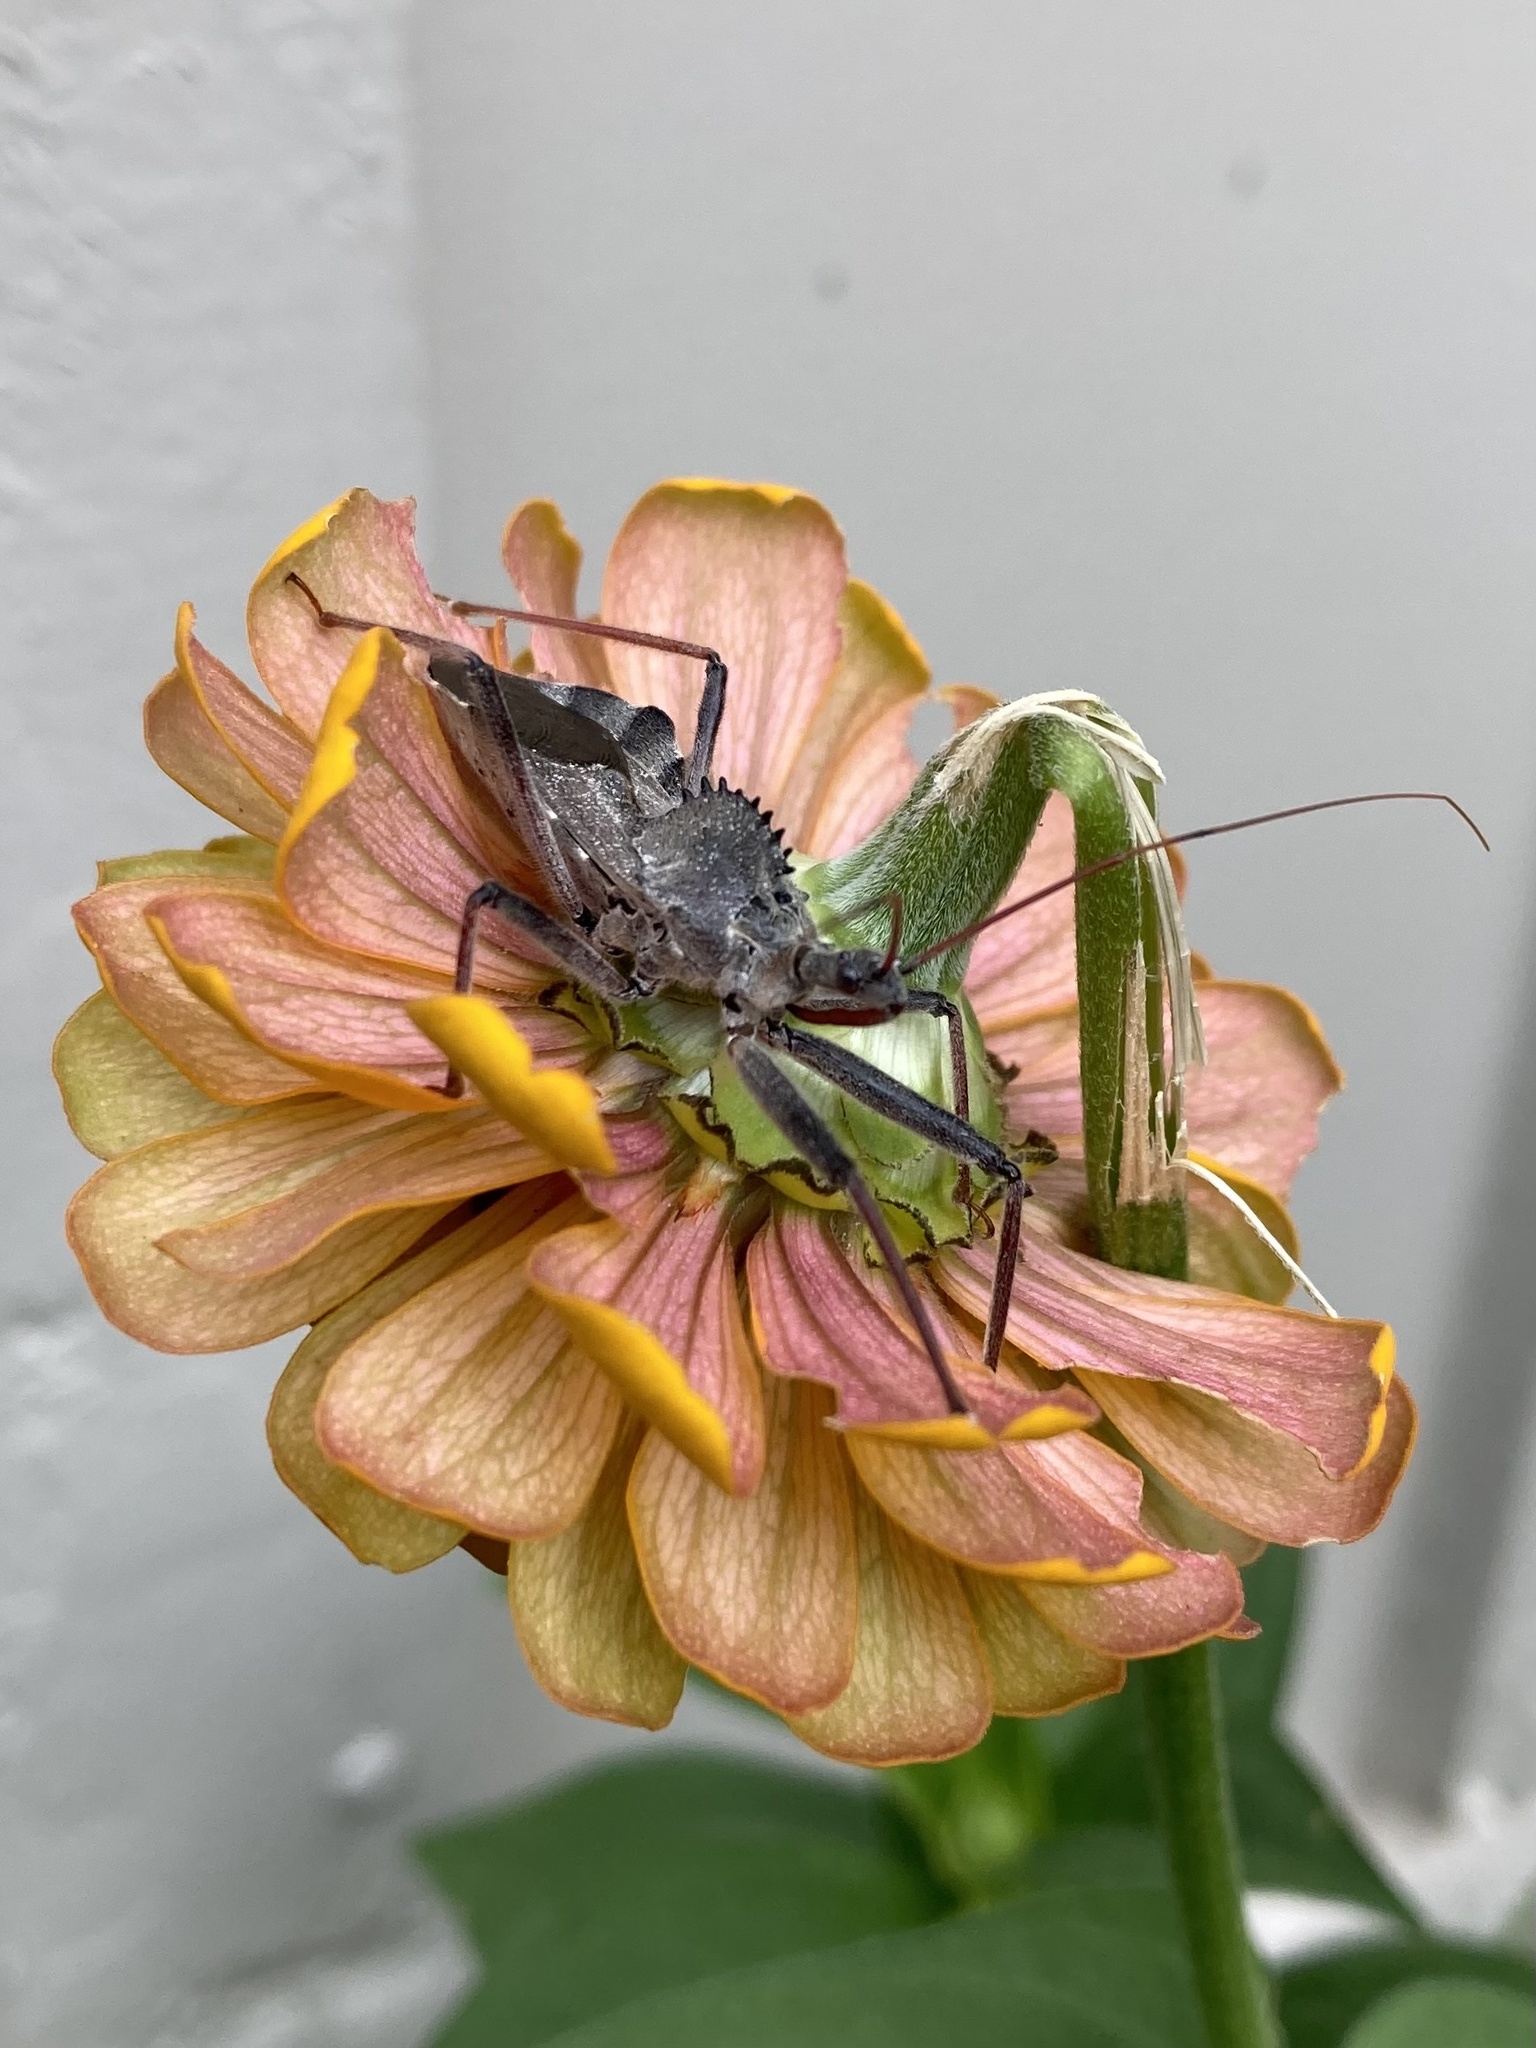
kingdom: Animalia
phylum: Arthropoda
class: Insecta
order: Hemiptera
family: Reduviidae
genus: Arilus
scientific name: Arilus cristatus
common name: North american wheel bug
